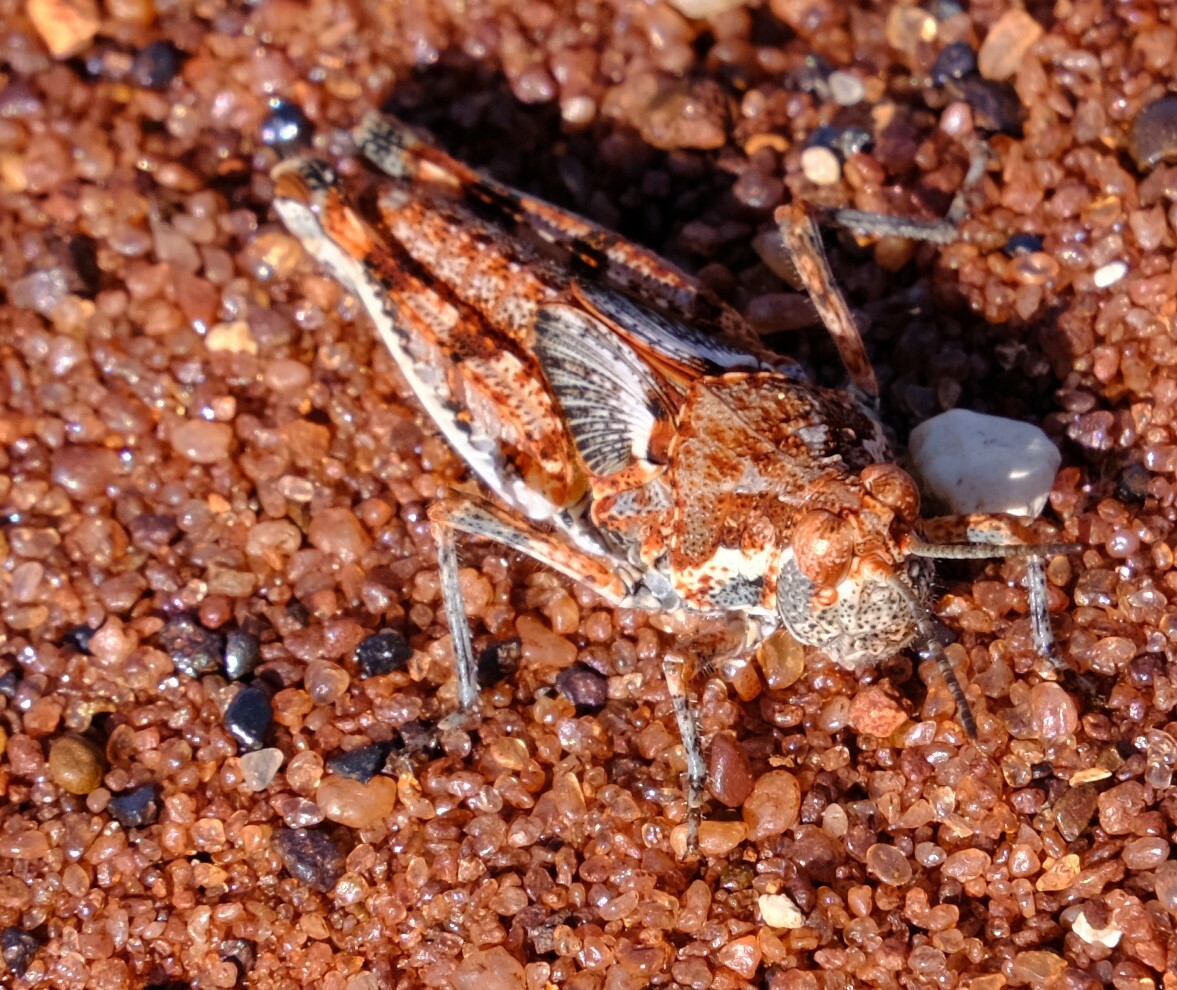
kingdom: Animalia
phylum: Arthropoda
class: Insecta
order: Orthoptera
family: Acrididae
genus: Urnisa
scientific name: Urnisa guttulosa
